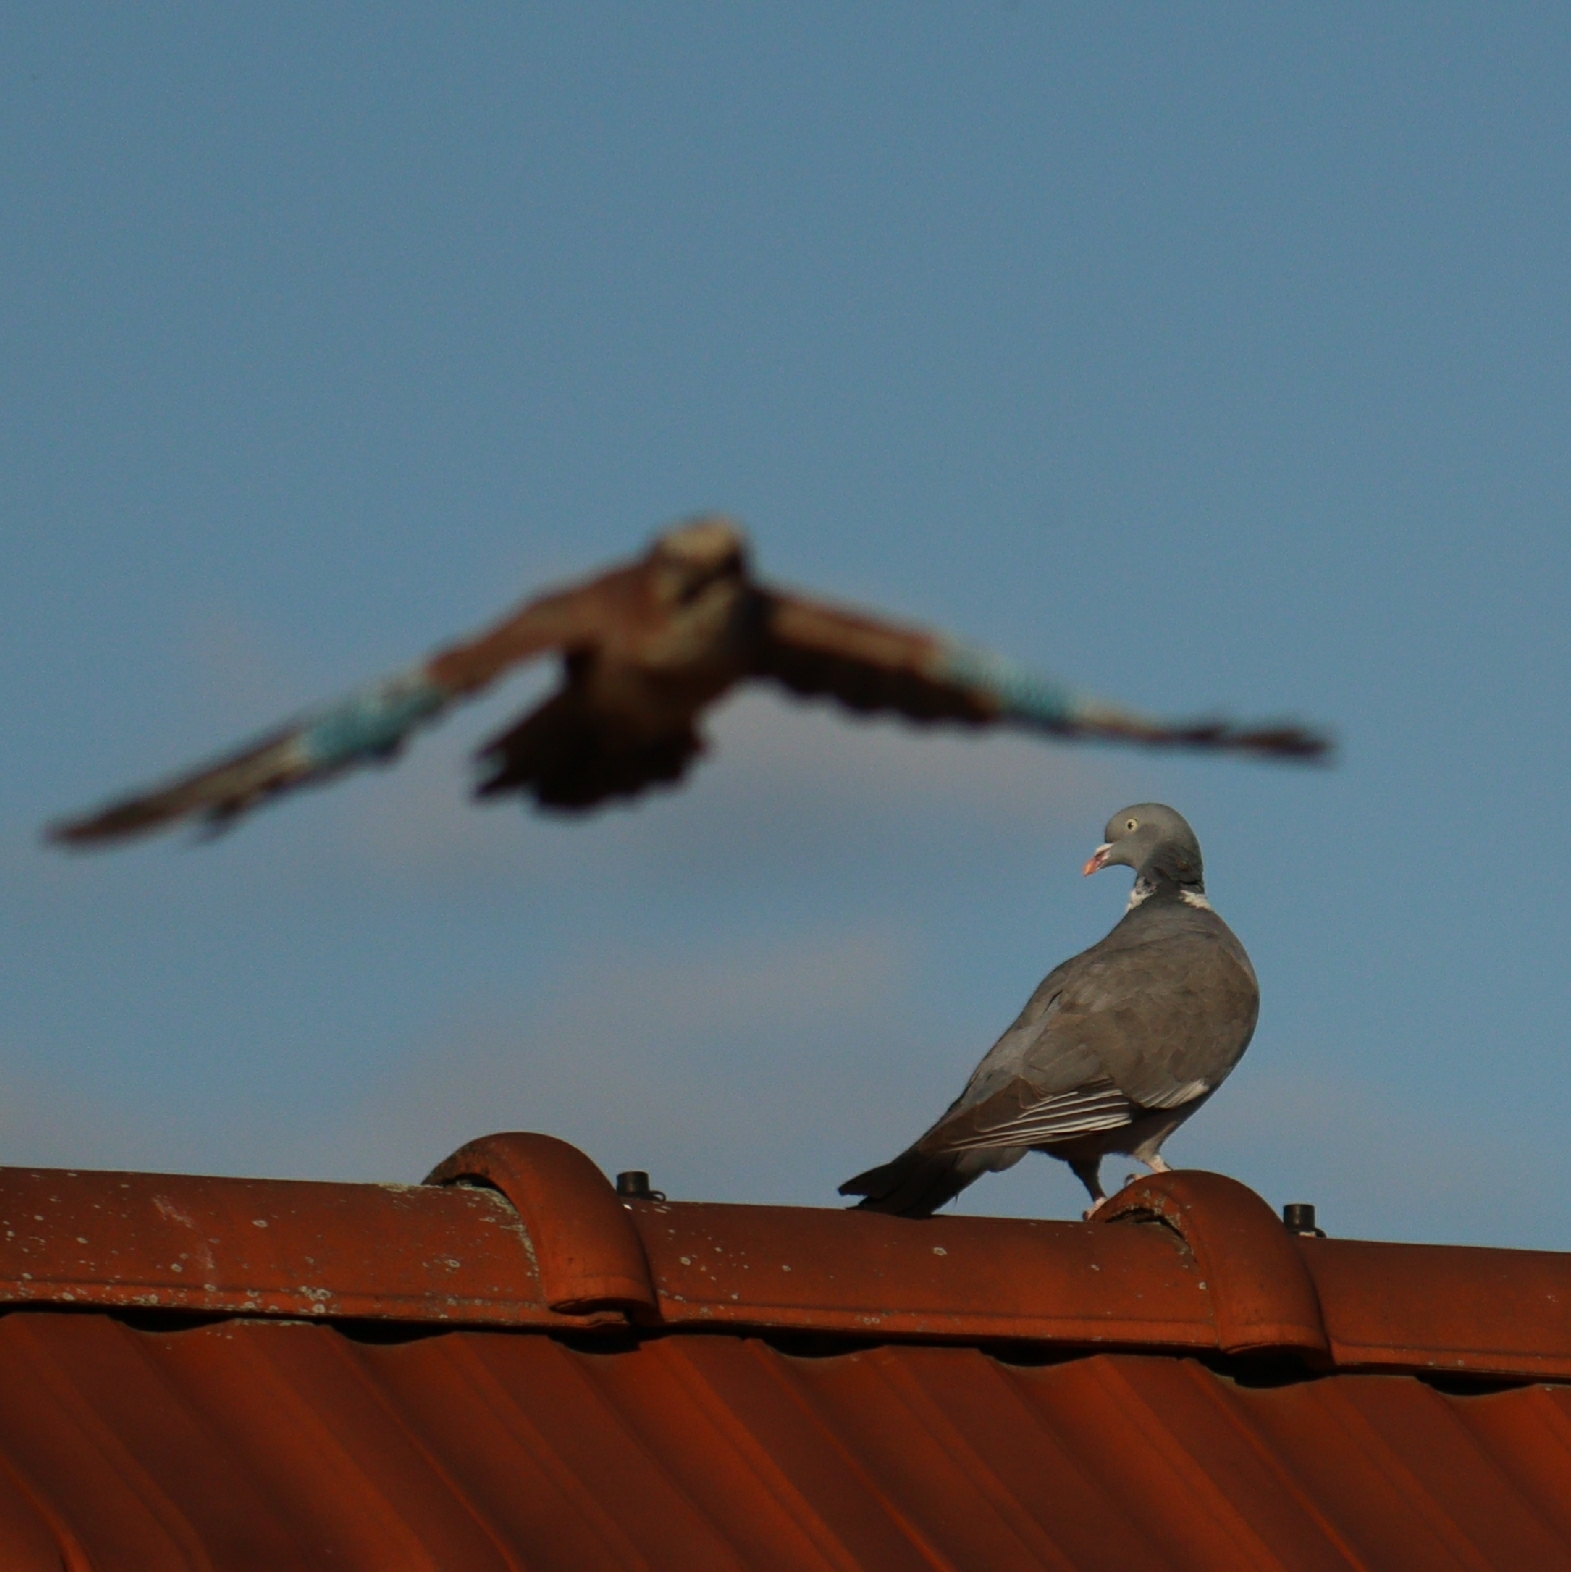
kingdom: Animalia
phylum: Chordata
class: Aves
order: Passeriformes
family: Corvidae
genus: Garrulus
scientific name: Garrulus glandarius
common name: Eurasian jay
